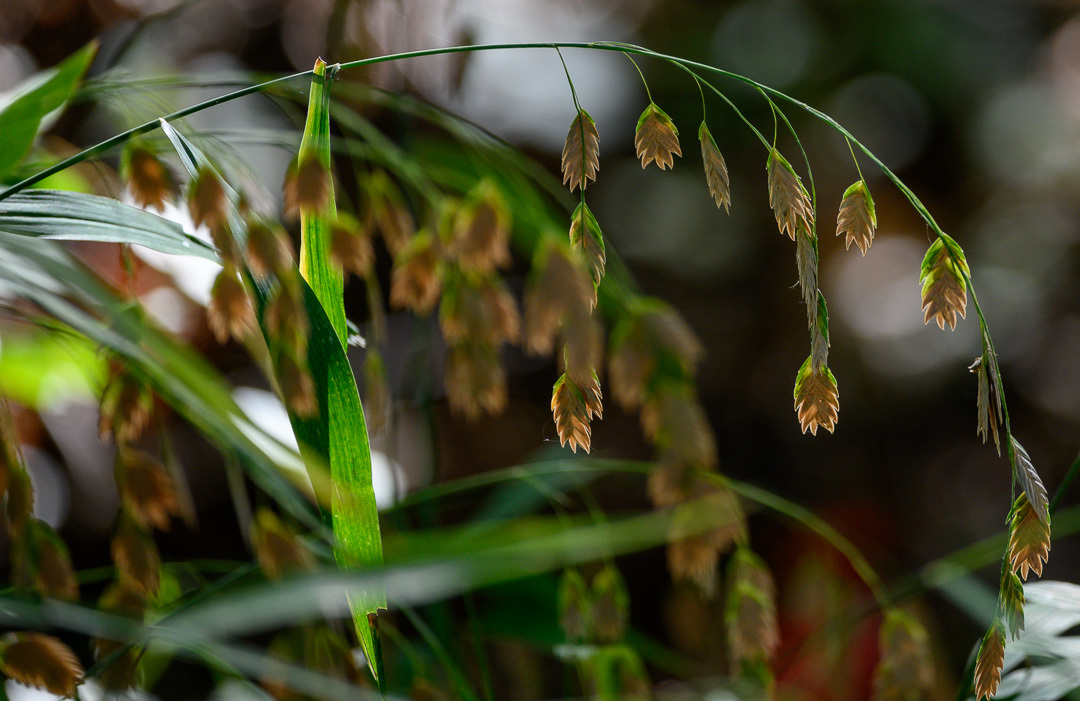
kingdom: Plantae
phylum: Tracheophyta
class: Liliopsida
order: Poales
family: Poaceae
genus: Chasmanthium
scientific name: Chasmanthium latifolium
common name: Broad-leaved chasmanthium
